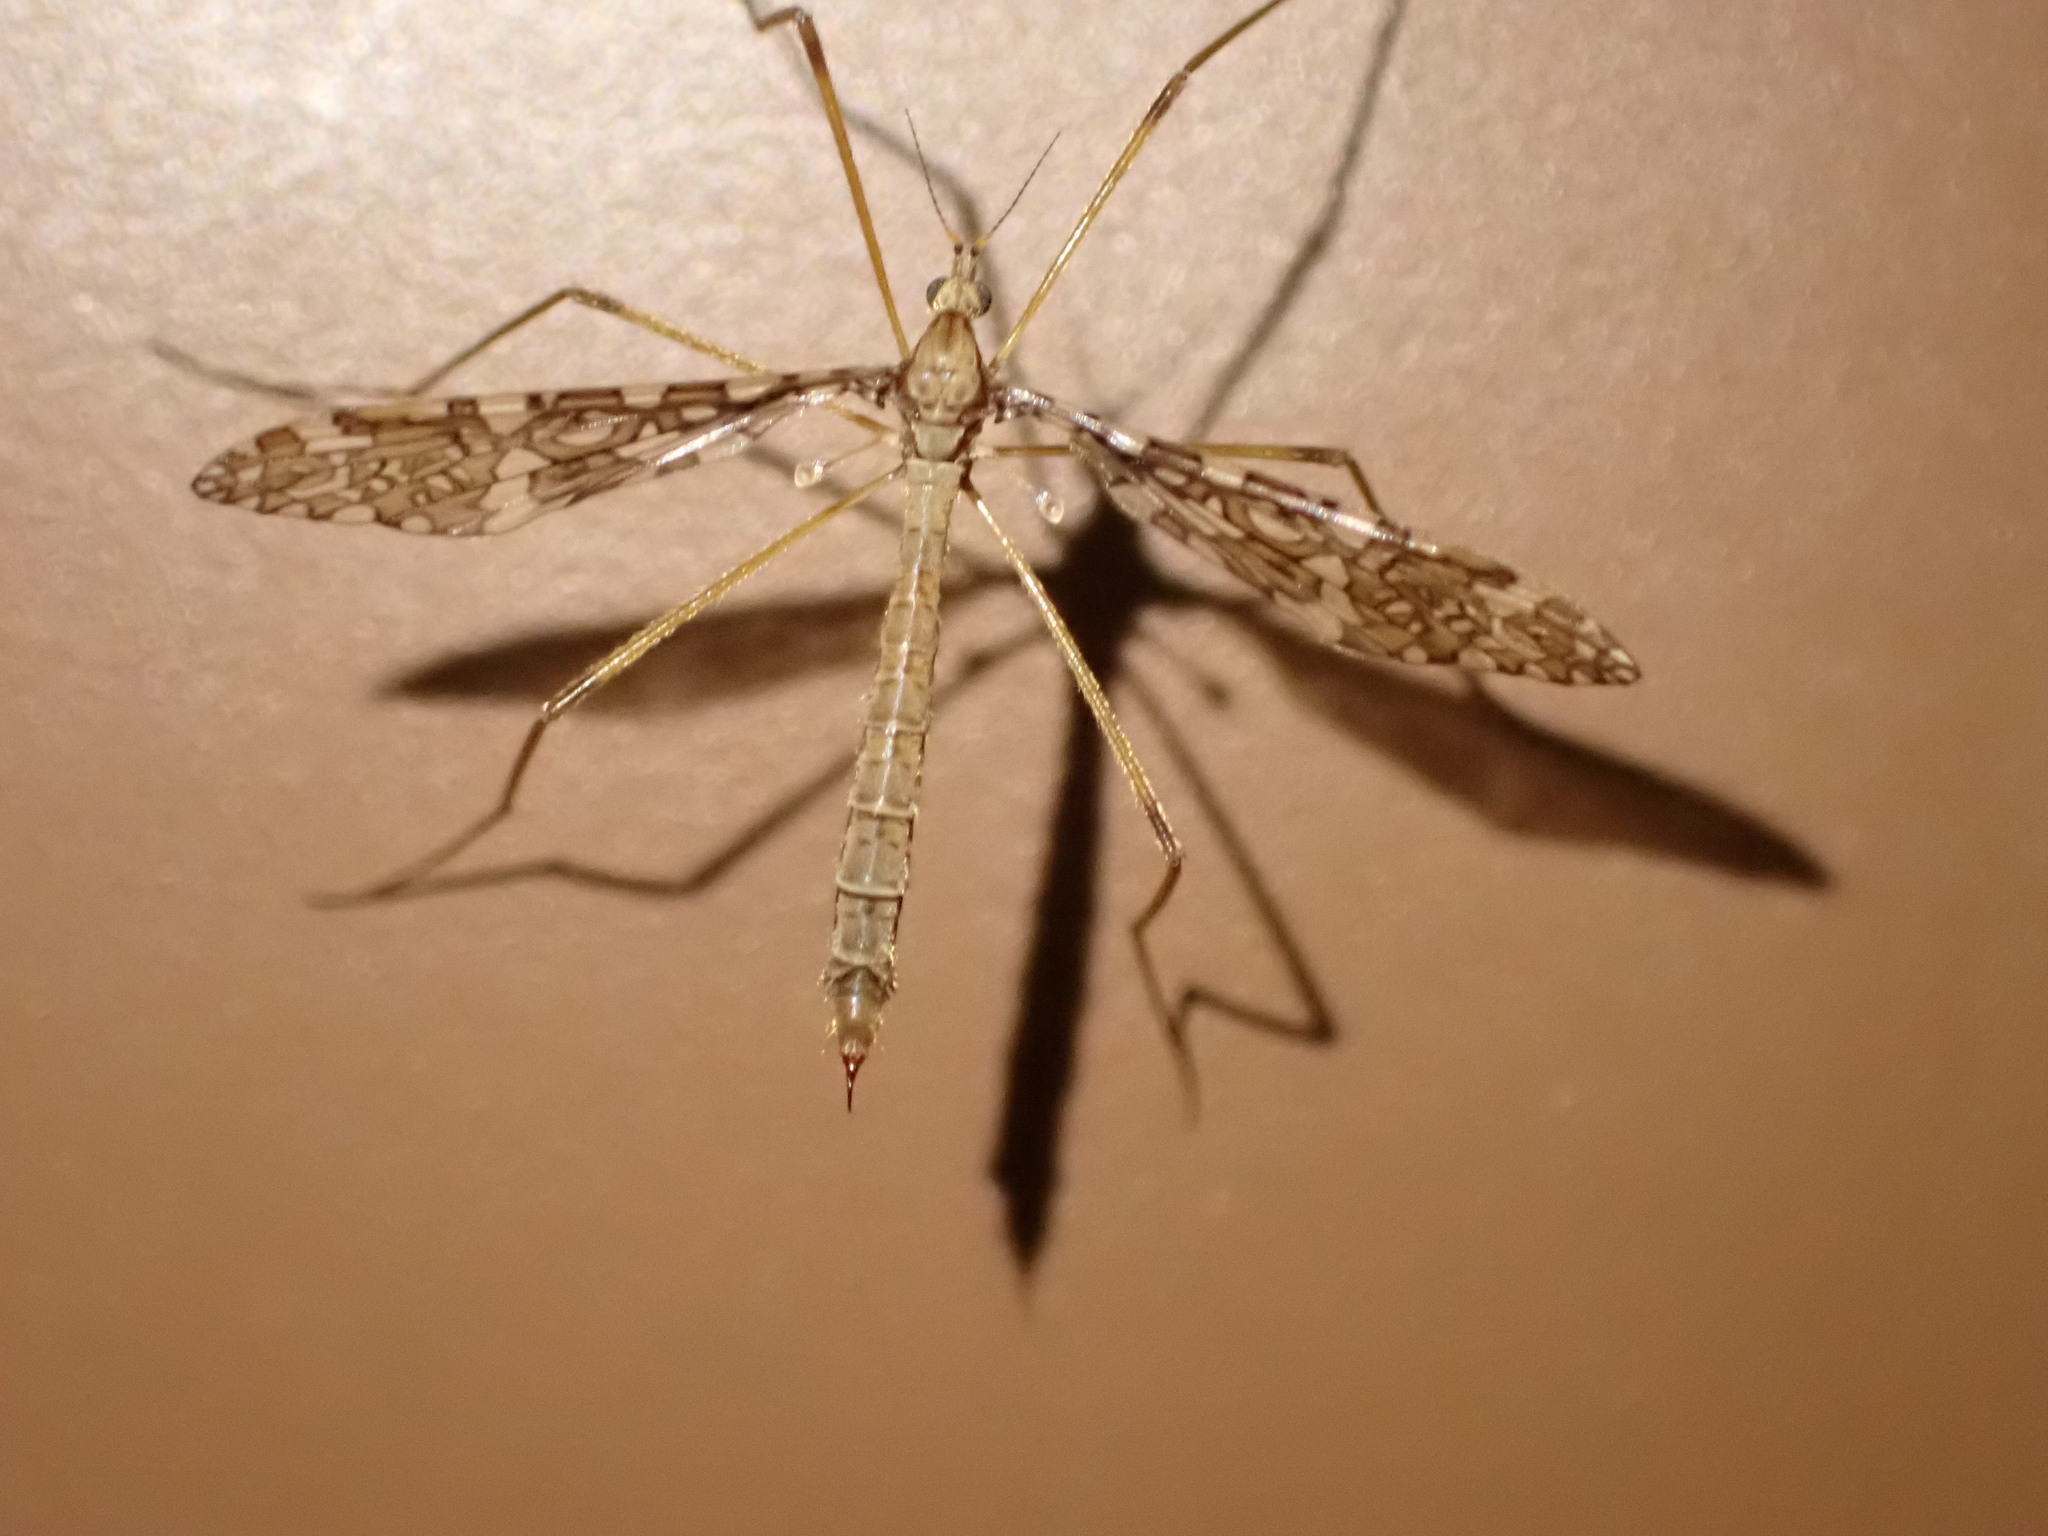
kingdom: Animalia
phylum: Arthropoda
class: Insecta
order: Diptera
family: Limoniidae
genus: Epiphragma
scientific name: Epiphragma fasciapenne
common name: Band-winged crane fly
